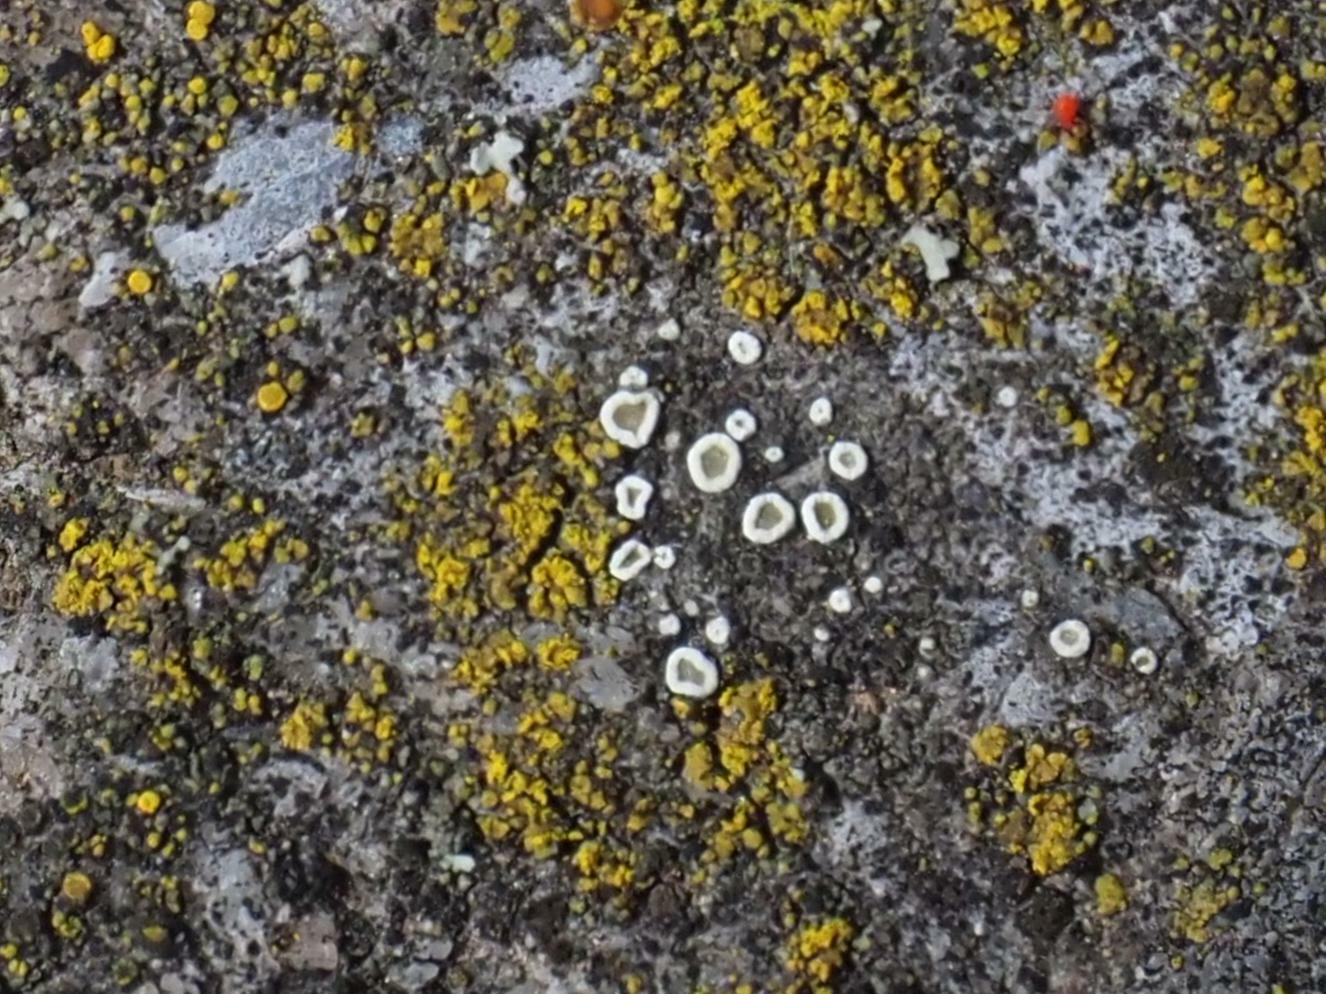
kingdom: Fungi
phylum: Ascomycota
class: Lecanoromycetes
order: Lecanorales
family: Lecanoraceae
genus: Polyozosia
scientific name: Polyozosia dispersa
